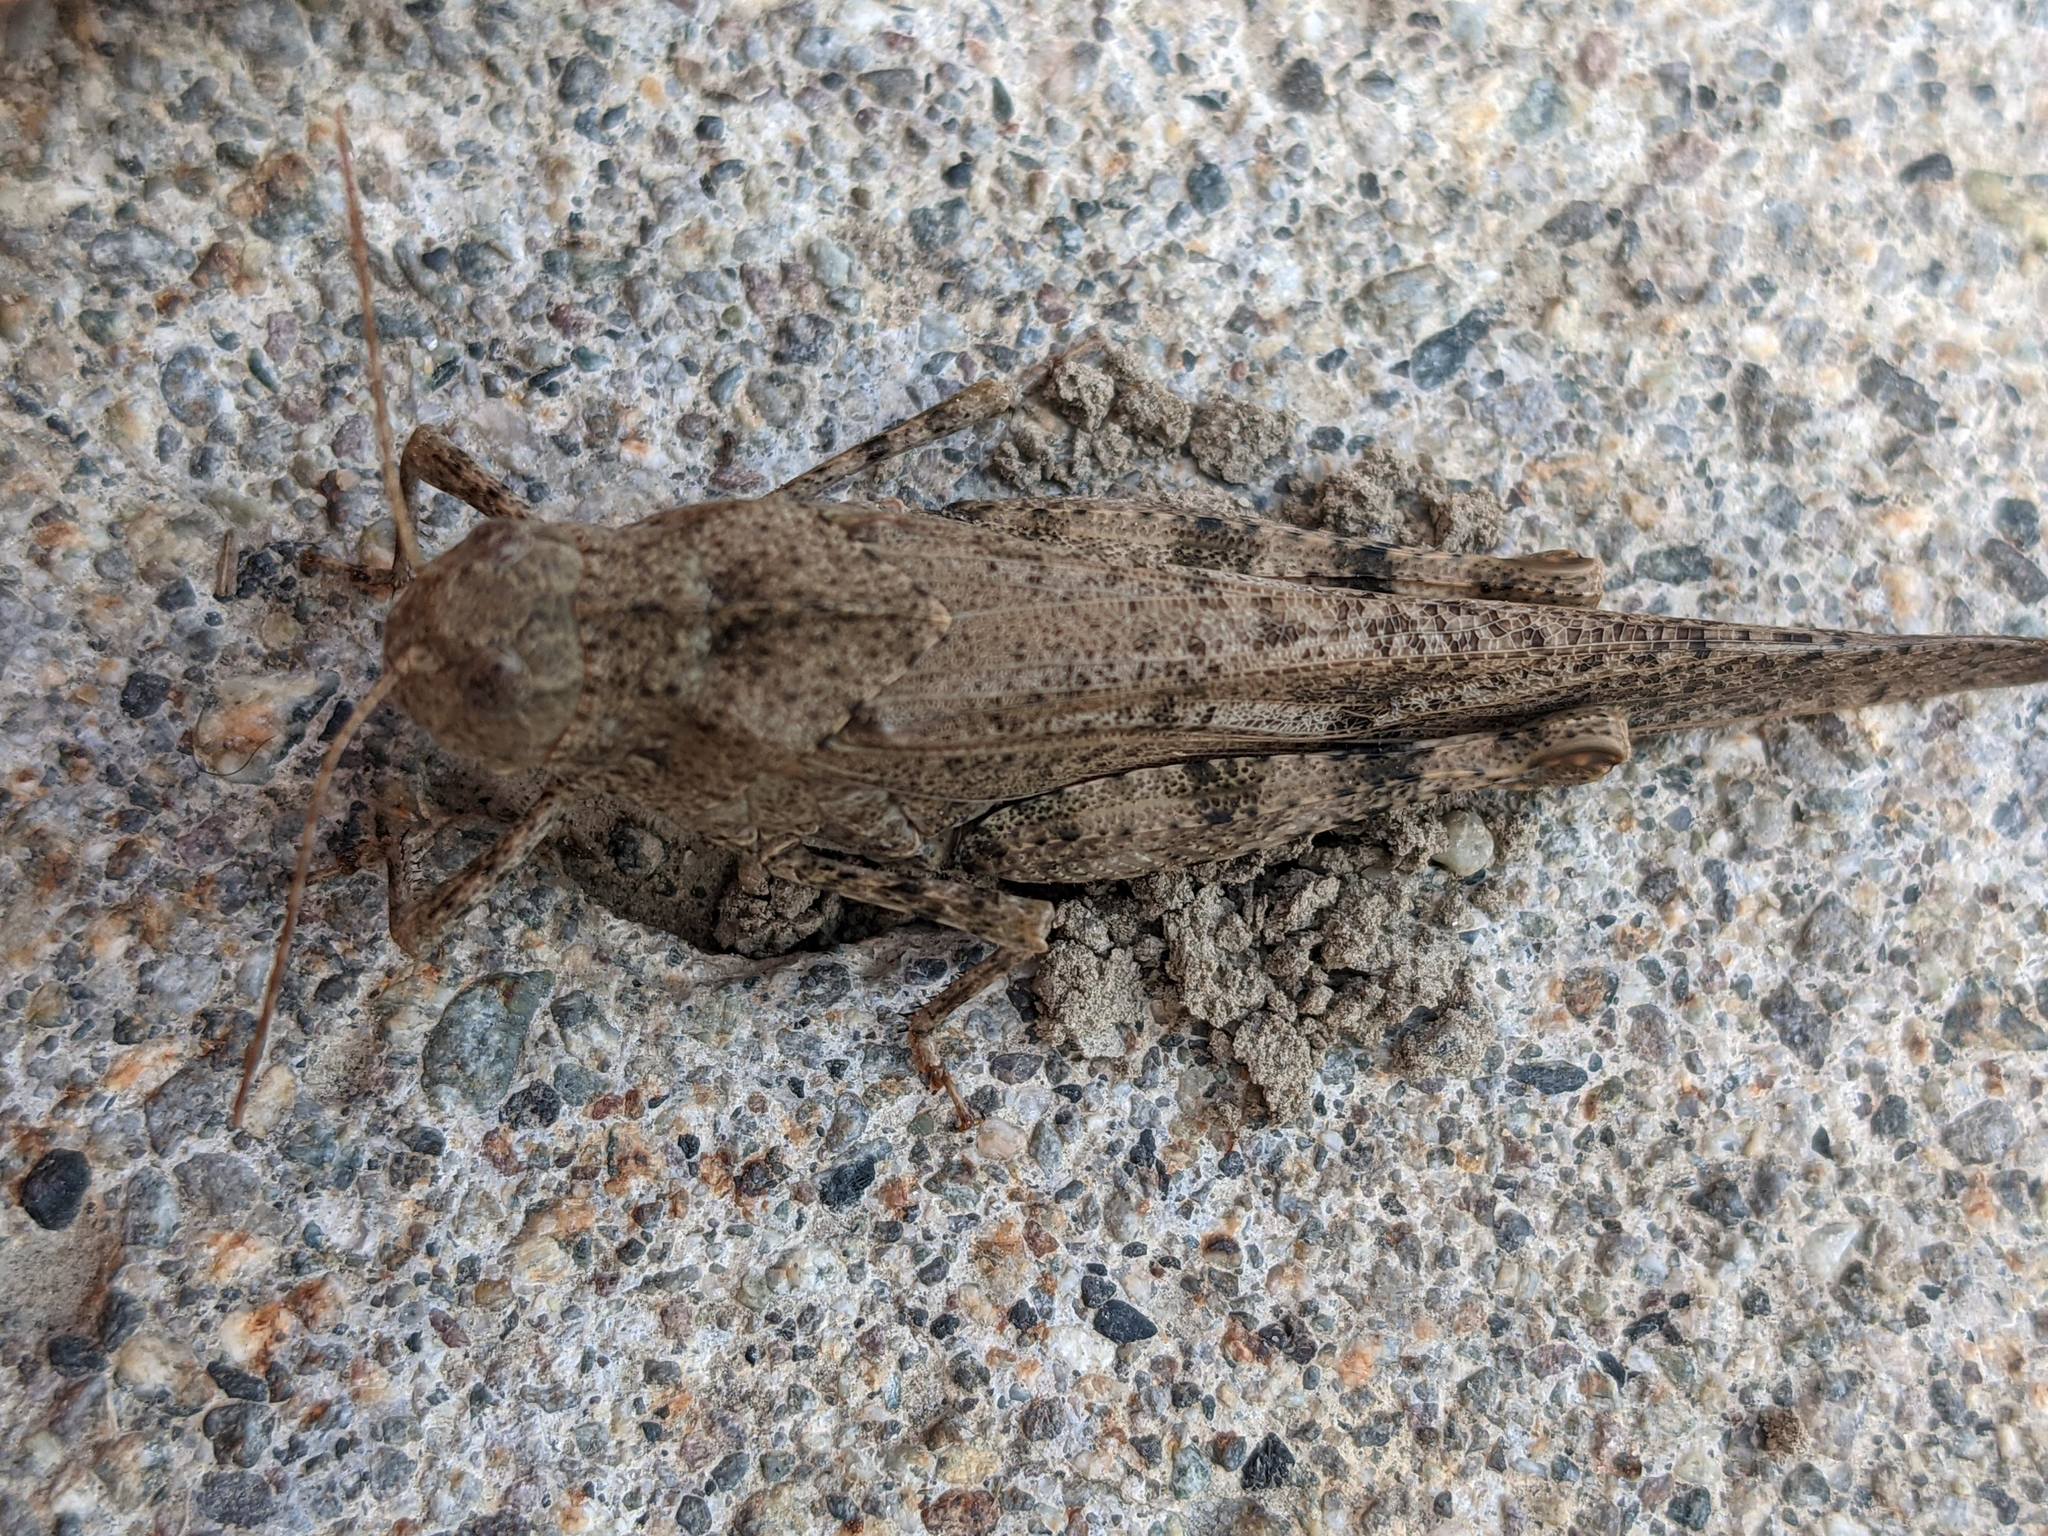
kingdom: Animalia
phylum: Arthropoda
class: Insecta
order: Orthoptera
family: Acrididae
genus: Dissosteira
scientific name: Dissosteira carolina
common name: Carolina grasshopper
